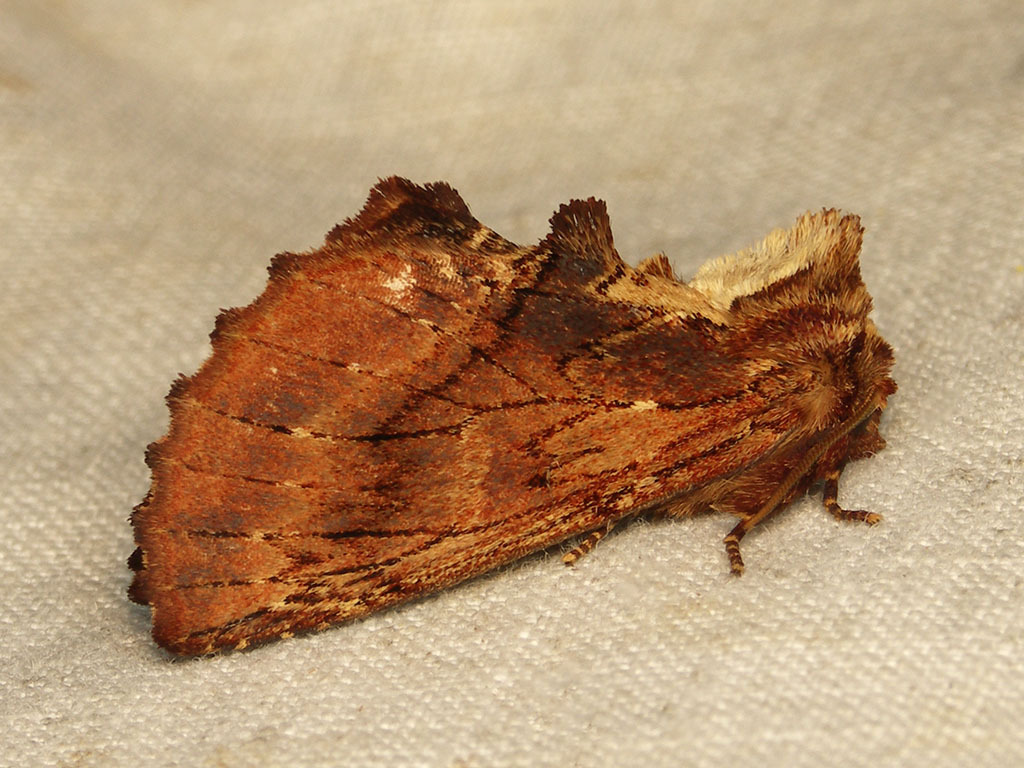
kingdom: Animalia
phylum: Arthropoda
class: Insecta
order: Lepidoptera
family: Notodontidae
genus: Ptilodon
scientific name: Ptilodon capucina
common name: Coxcomb prominent
